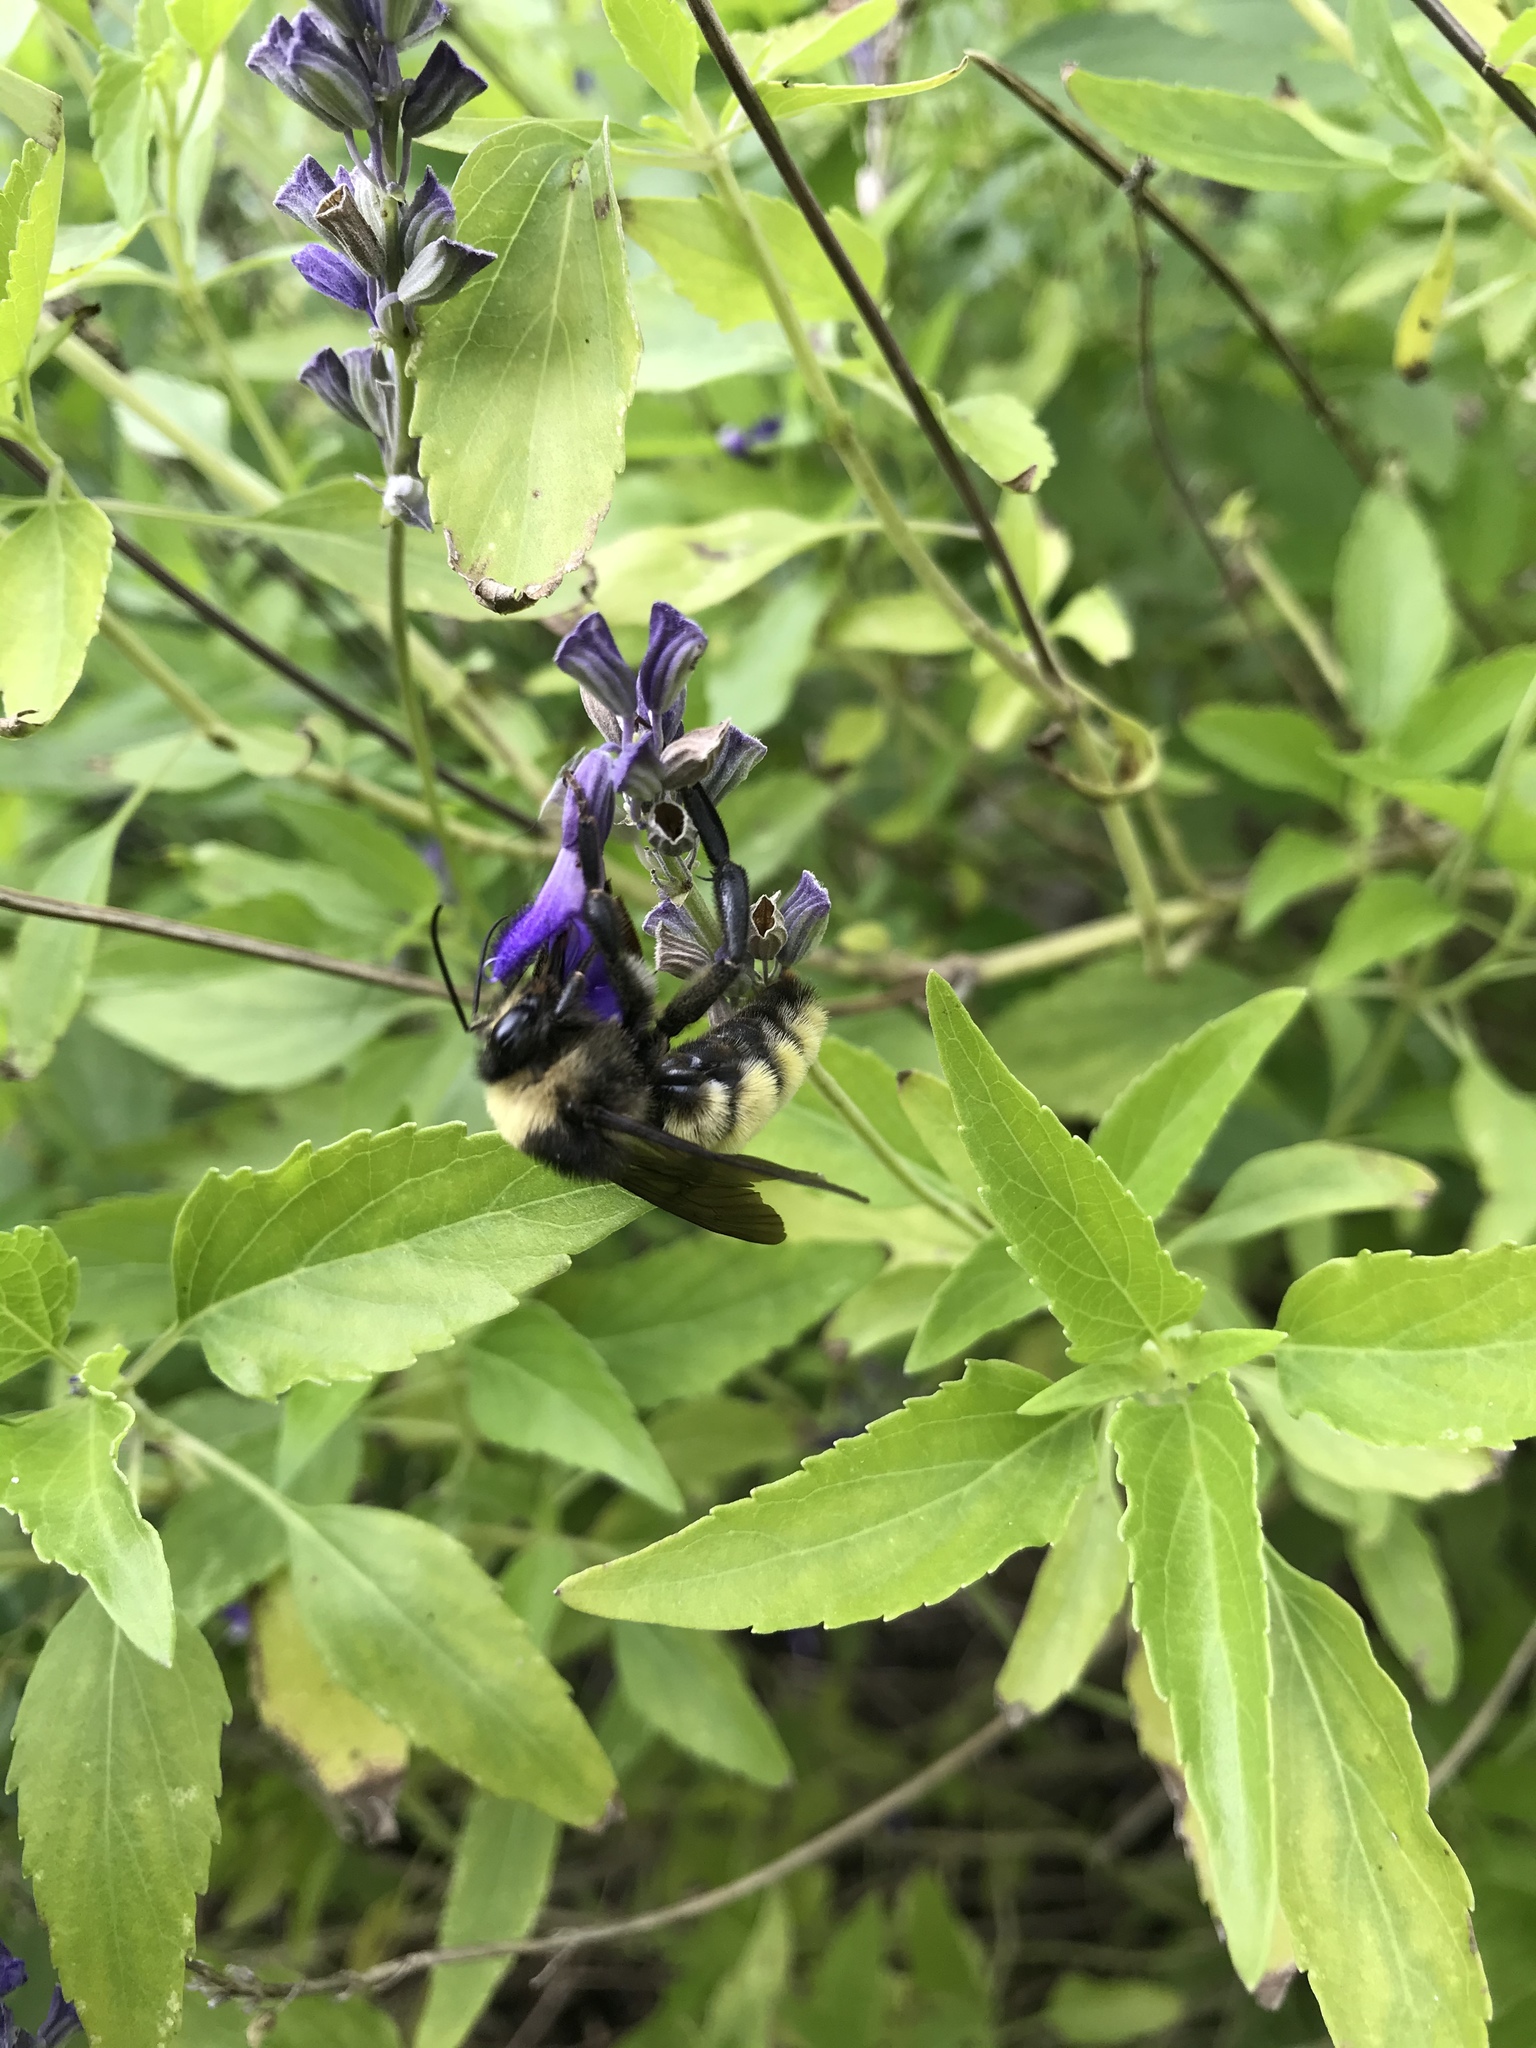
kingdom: Animalia
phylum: Arthropoda
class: Insecta
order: Hymenoptera
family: Apidae
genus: Bombus
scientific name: Bombus pensylvanicus
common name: Bumble bee
